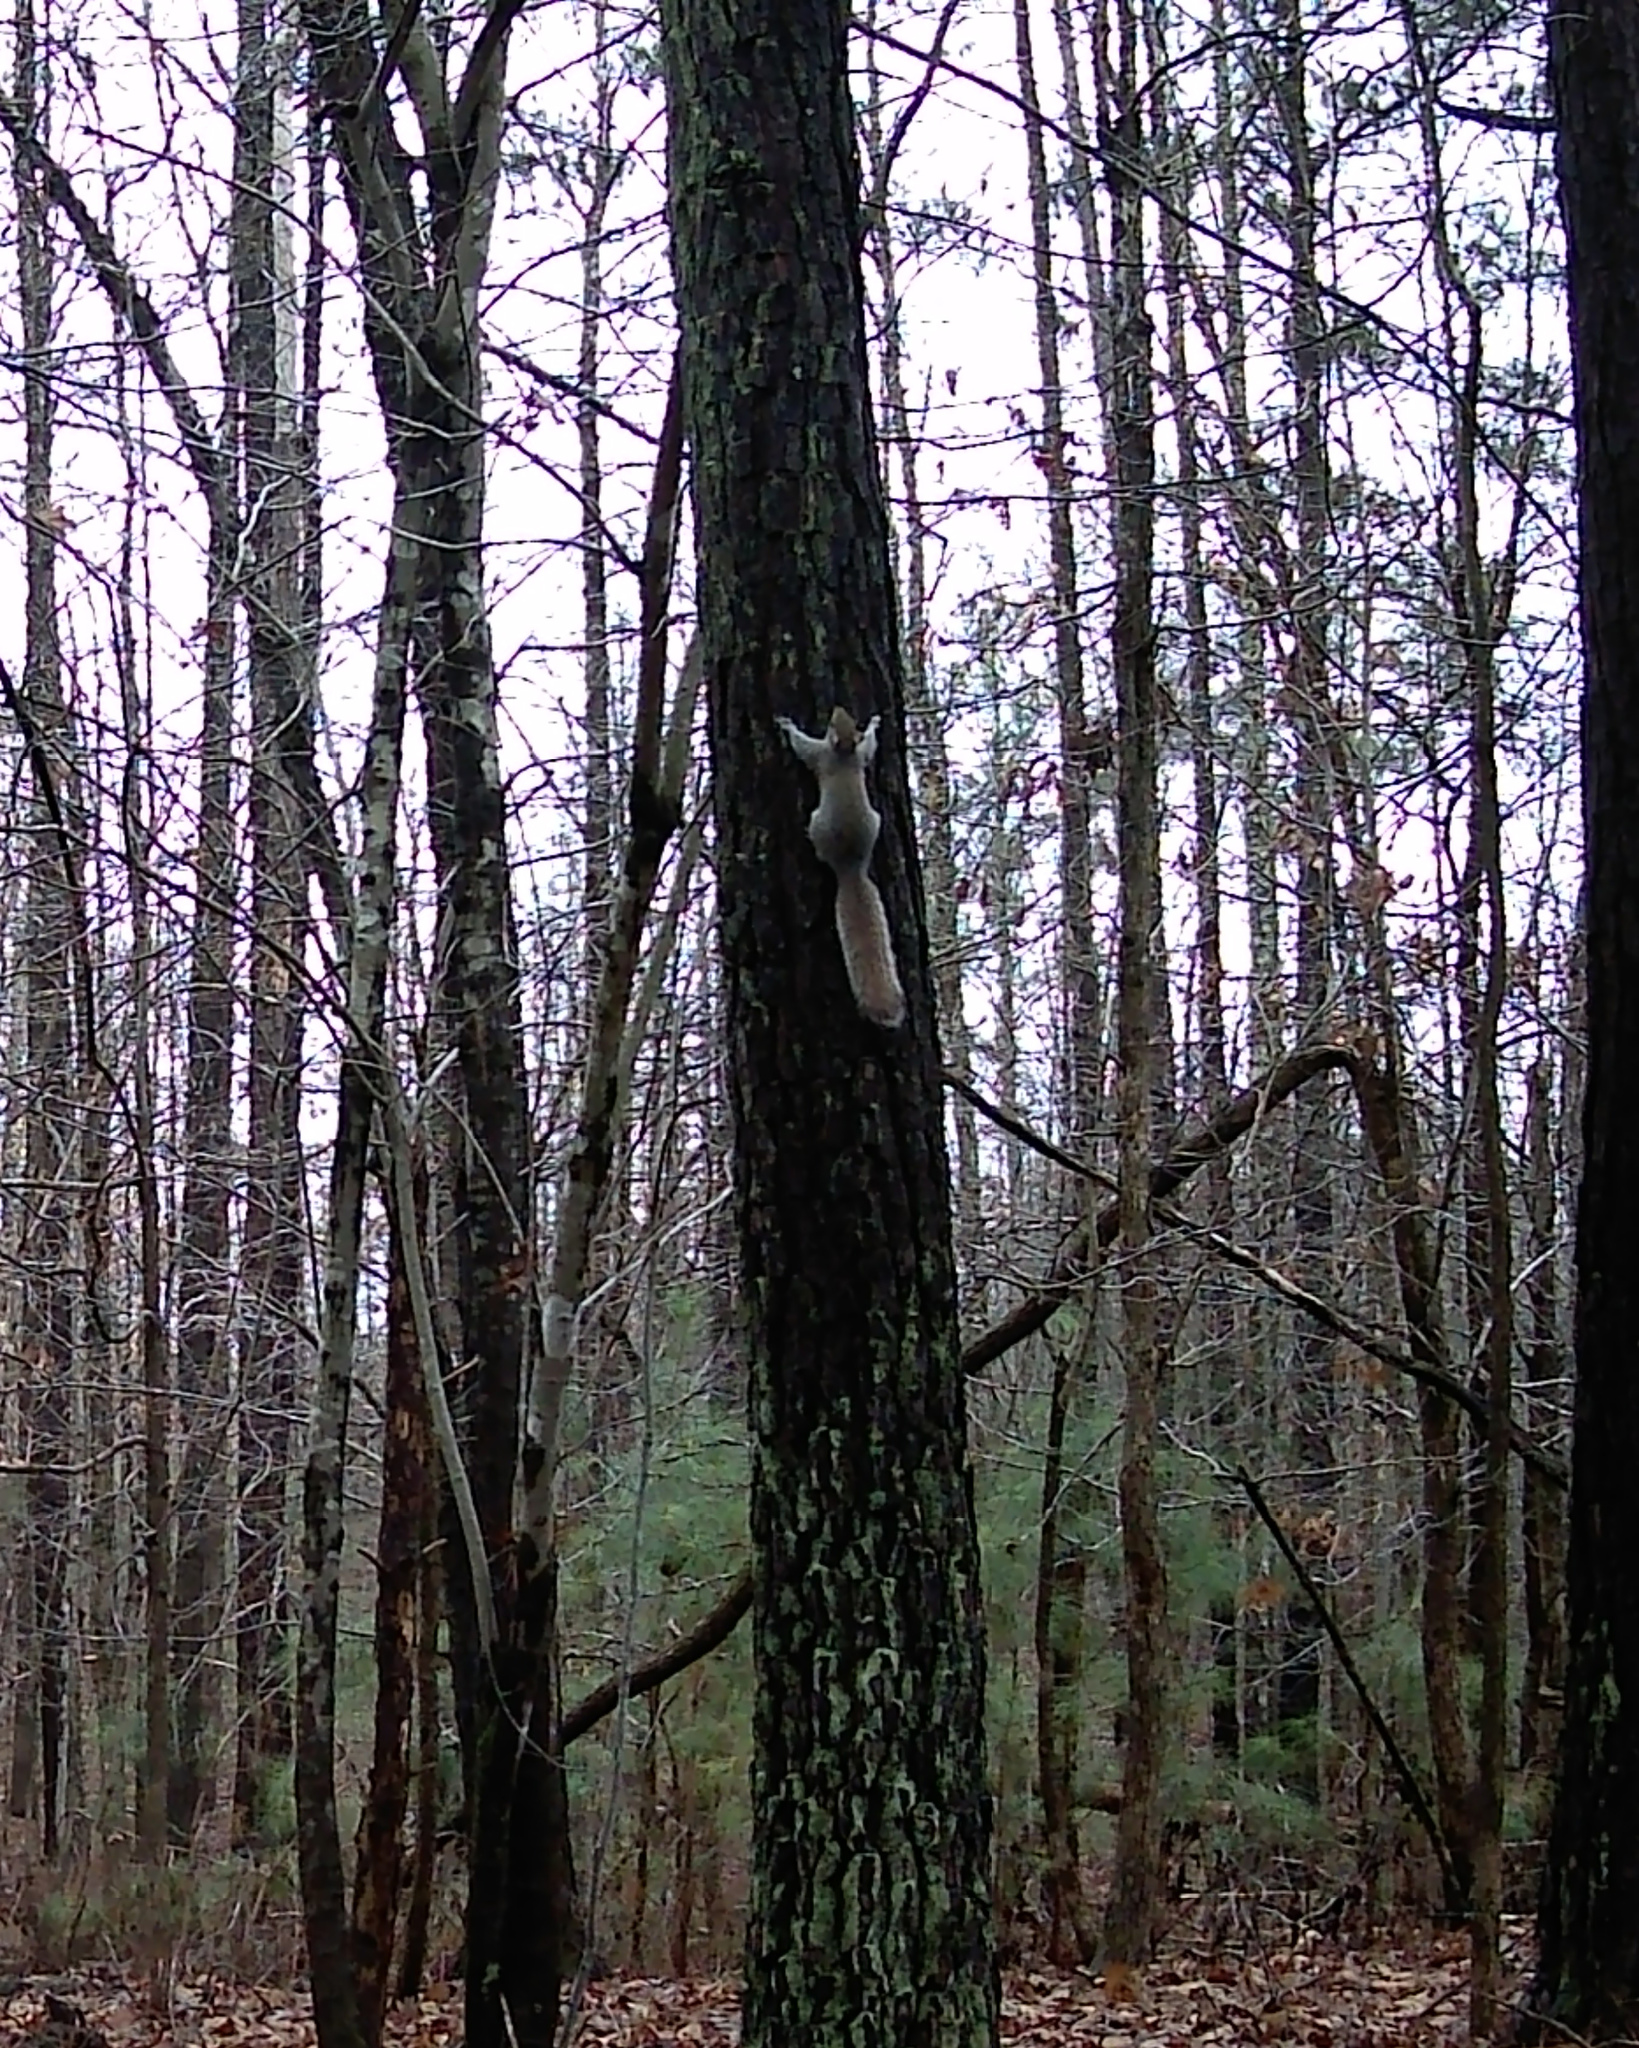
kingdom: Animalia
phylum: Chordata
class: Mammalia
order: Rodentia
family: Sciuridae
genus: Sciurus
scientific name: Sciurus carolinensis
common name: Eastern gray squirrel
